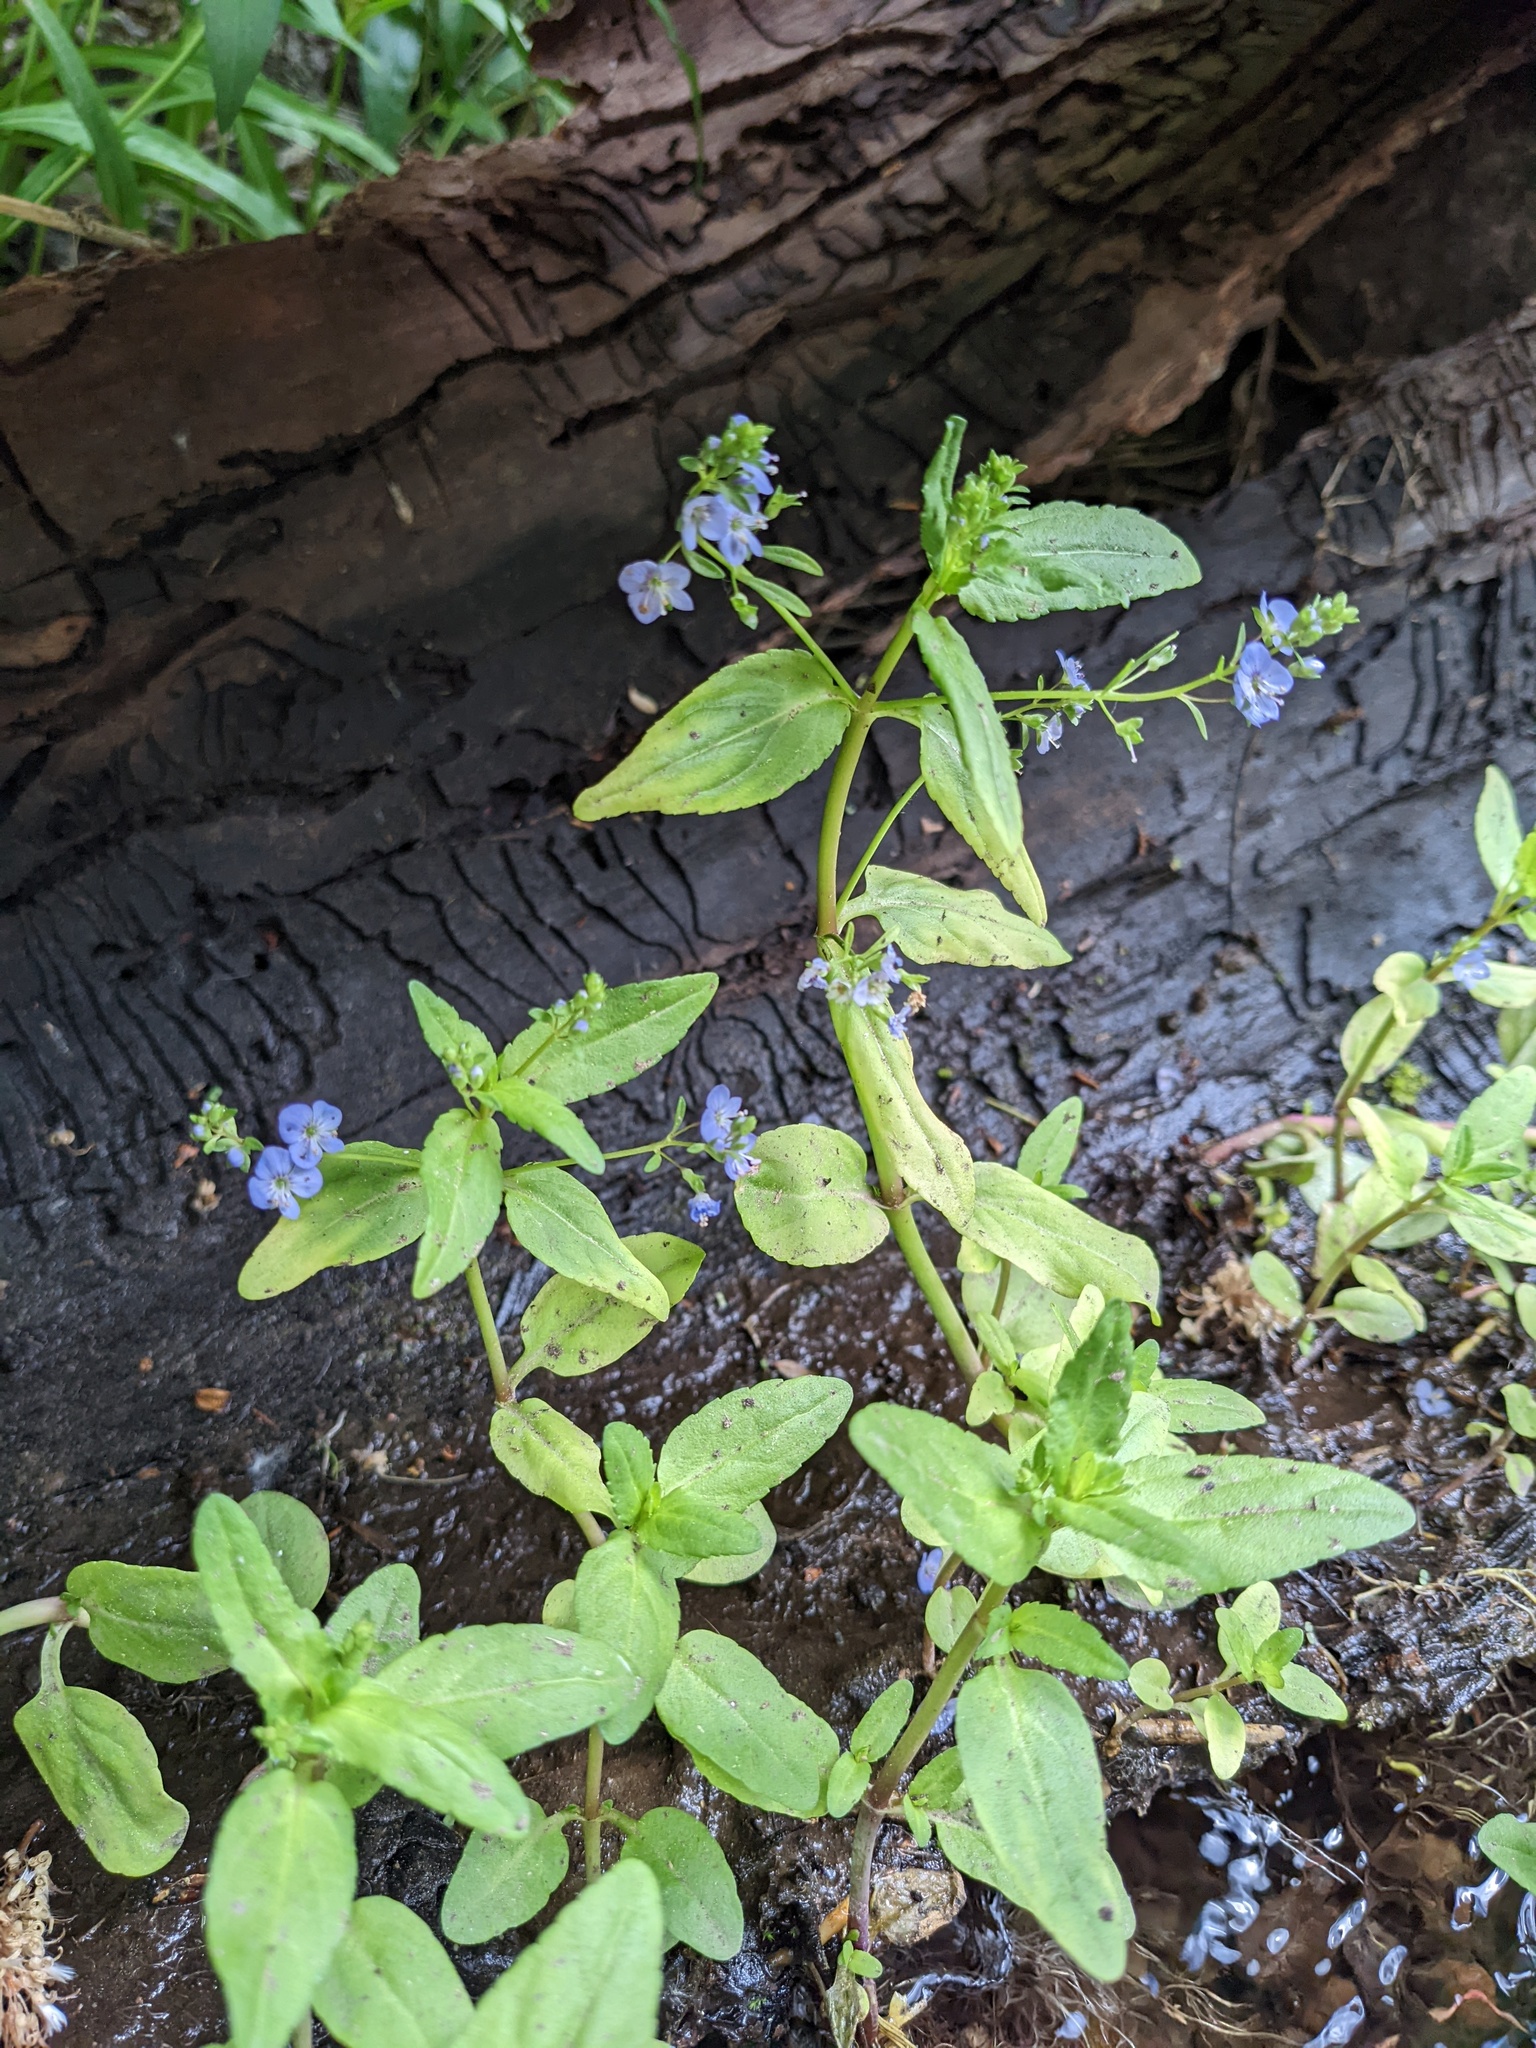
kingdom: Plantae
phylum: Tracheophyta
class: Magnoliopsida
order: Lamiales
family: Plantaginaceae
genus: Veronica
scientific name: Veronica americana
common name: American brooklime
